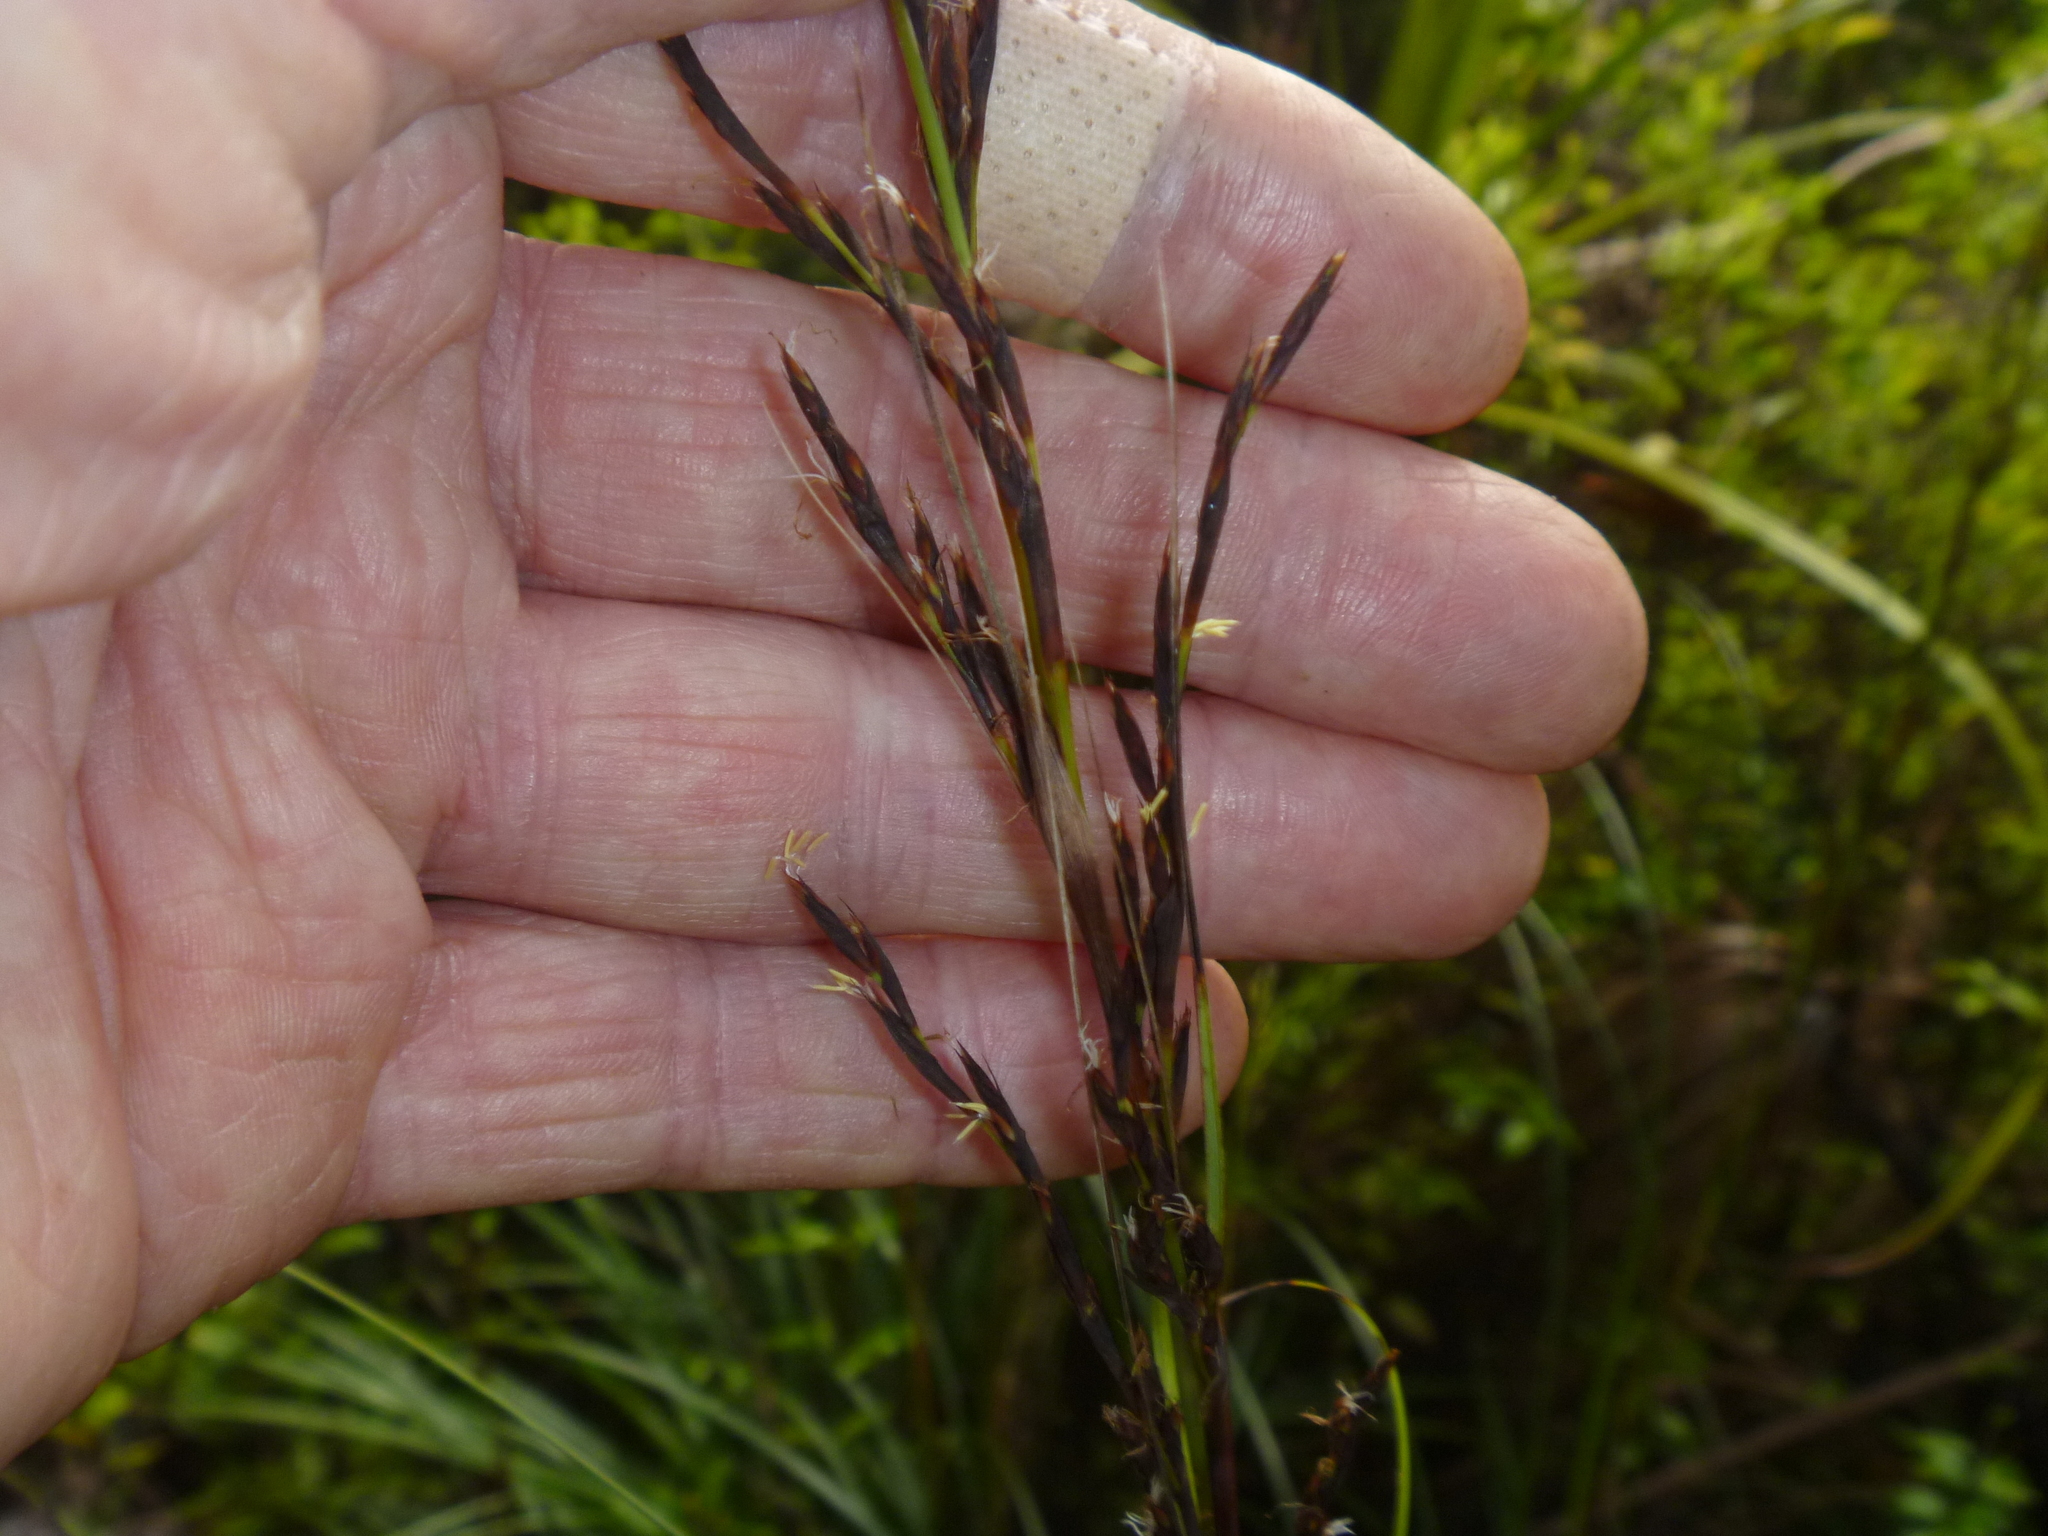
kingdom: Plantae
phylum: Tracheophyta
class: Liliopsida
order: Poales
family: Cyperaceae
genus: Gahnia
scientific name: Gahnia lacera
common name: Sawsedge
